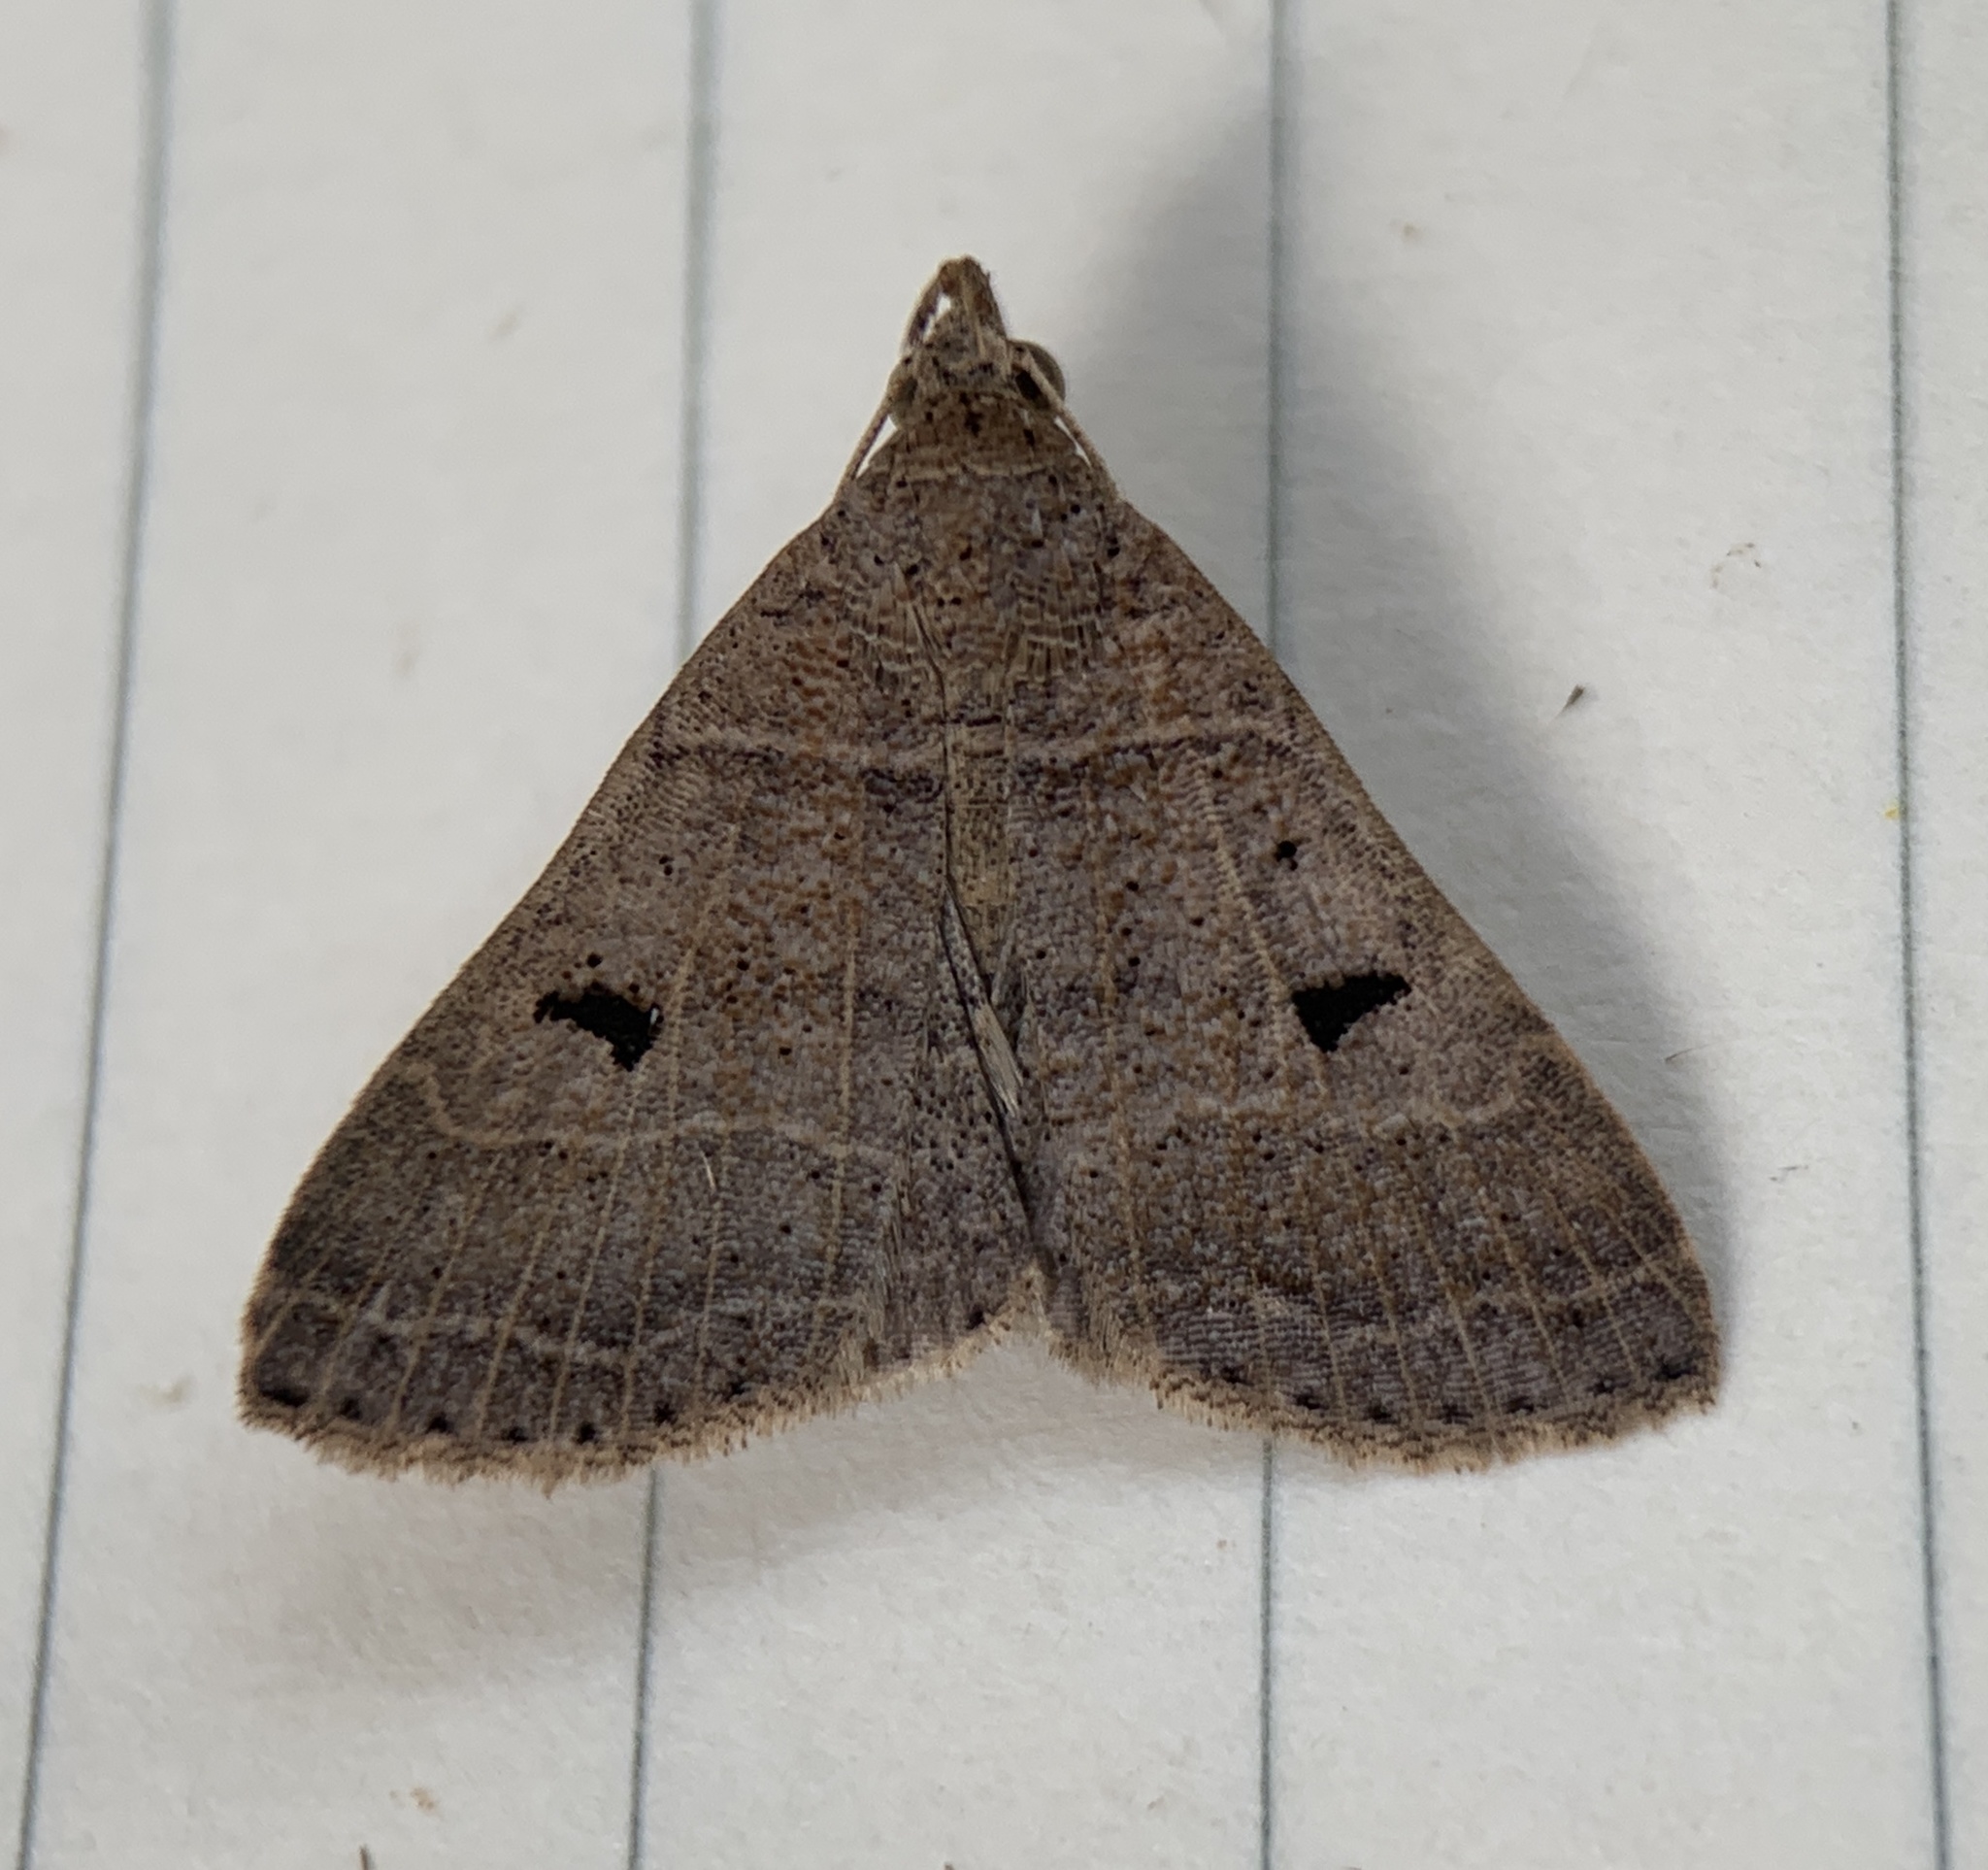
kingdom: Animalia
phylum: Arthropoda
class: Insecta
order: Lepidoptera
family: Erebidae
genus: Bleptina
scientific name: Bleptina flavivena
